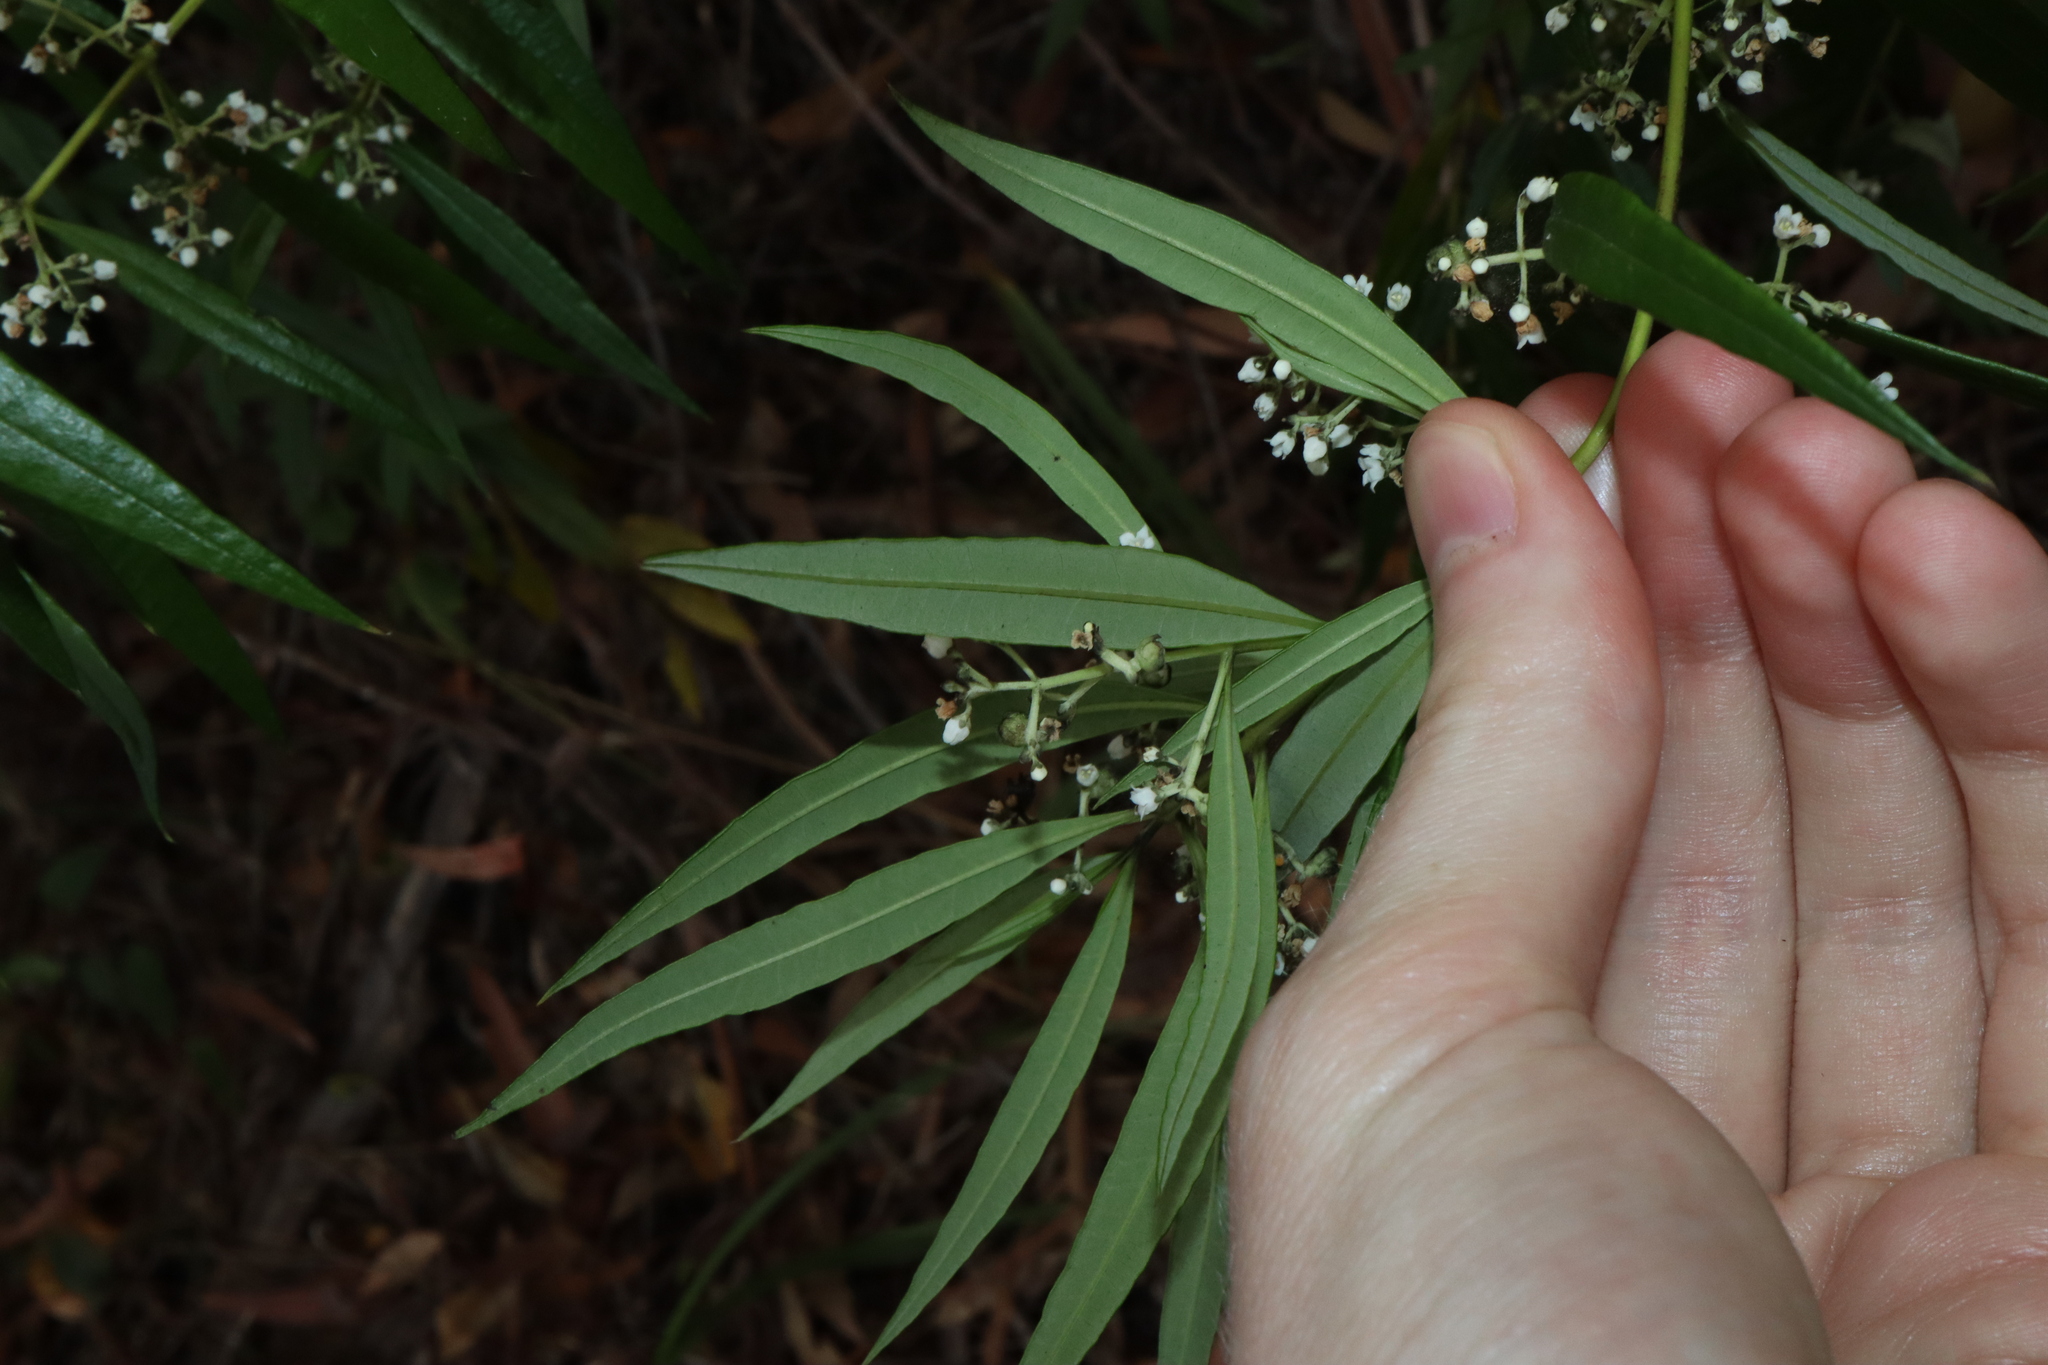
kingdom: Plantae
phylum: Tracheophyta
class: Magnoliopsida
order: Gentianales
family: Loganiaceae
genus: Logania
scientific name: Logania albiflora
